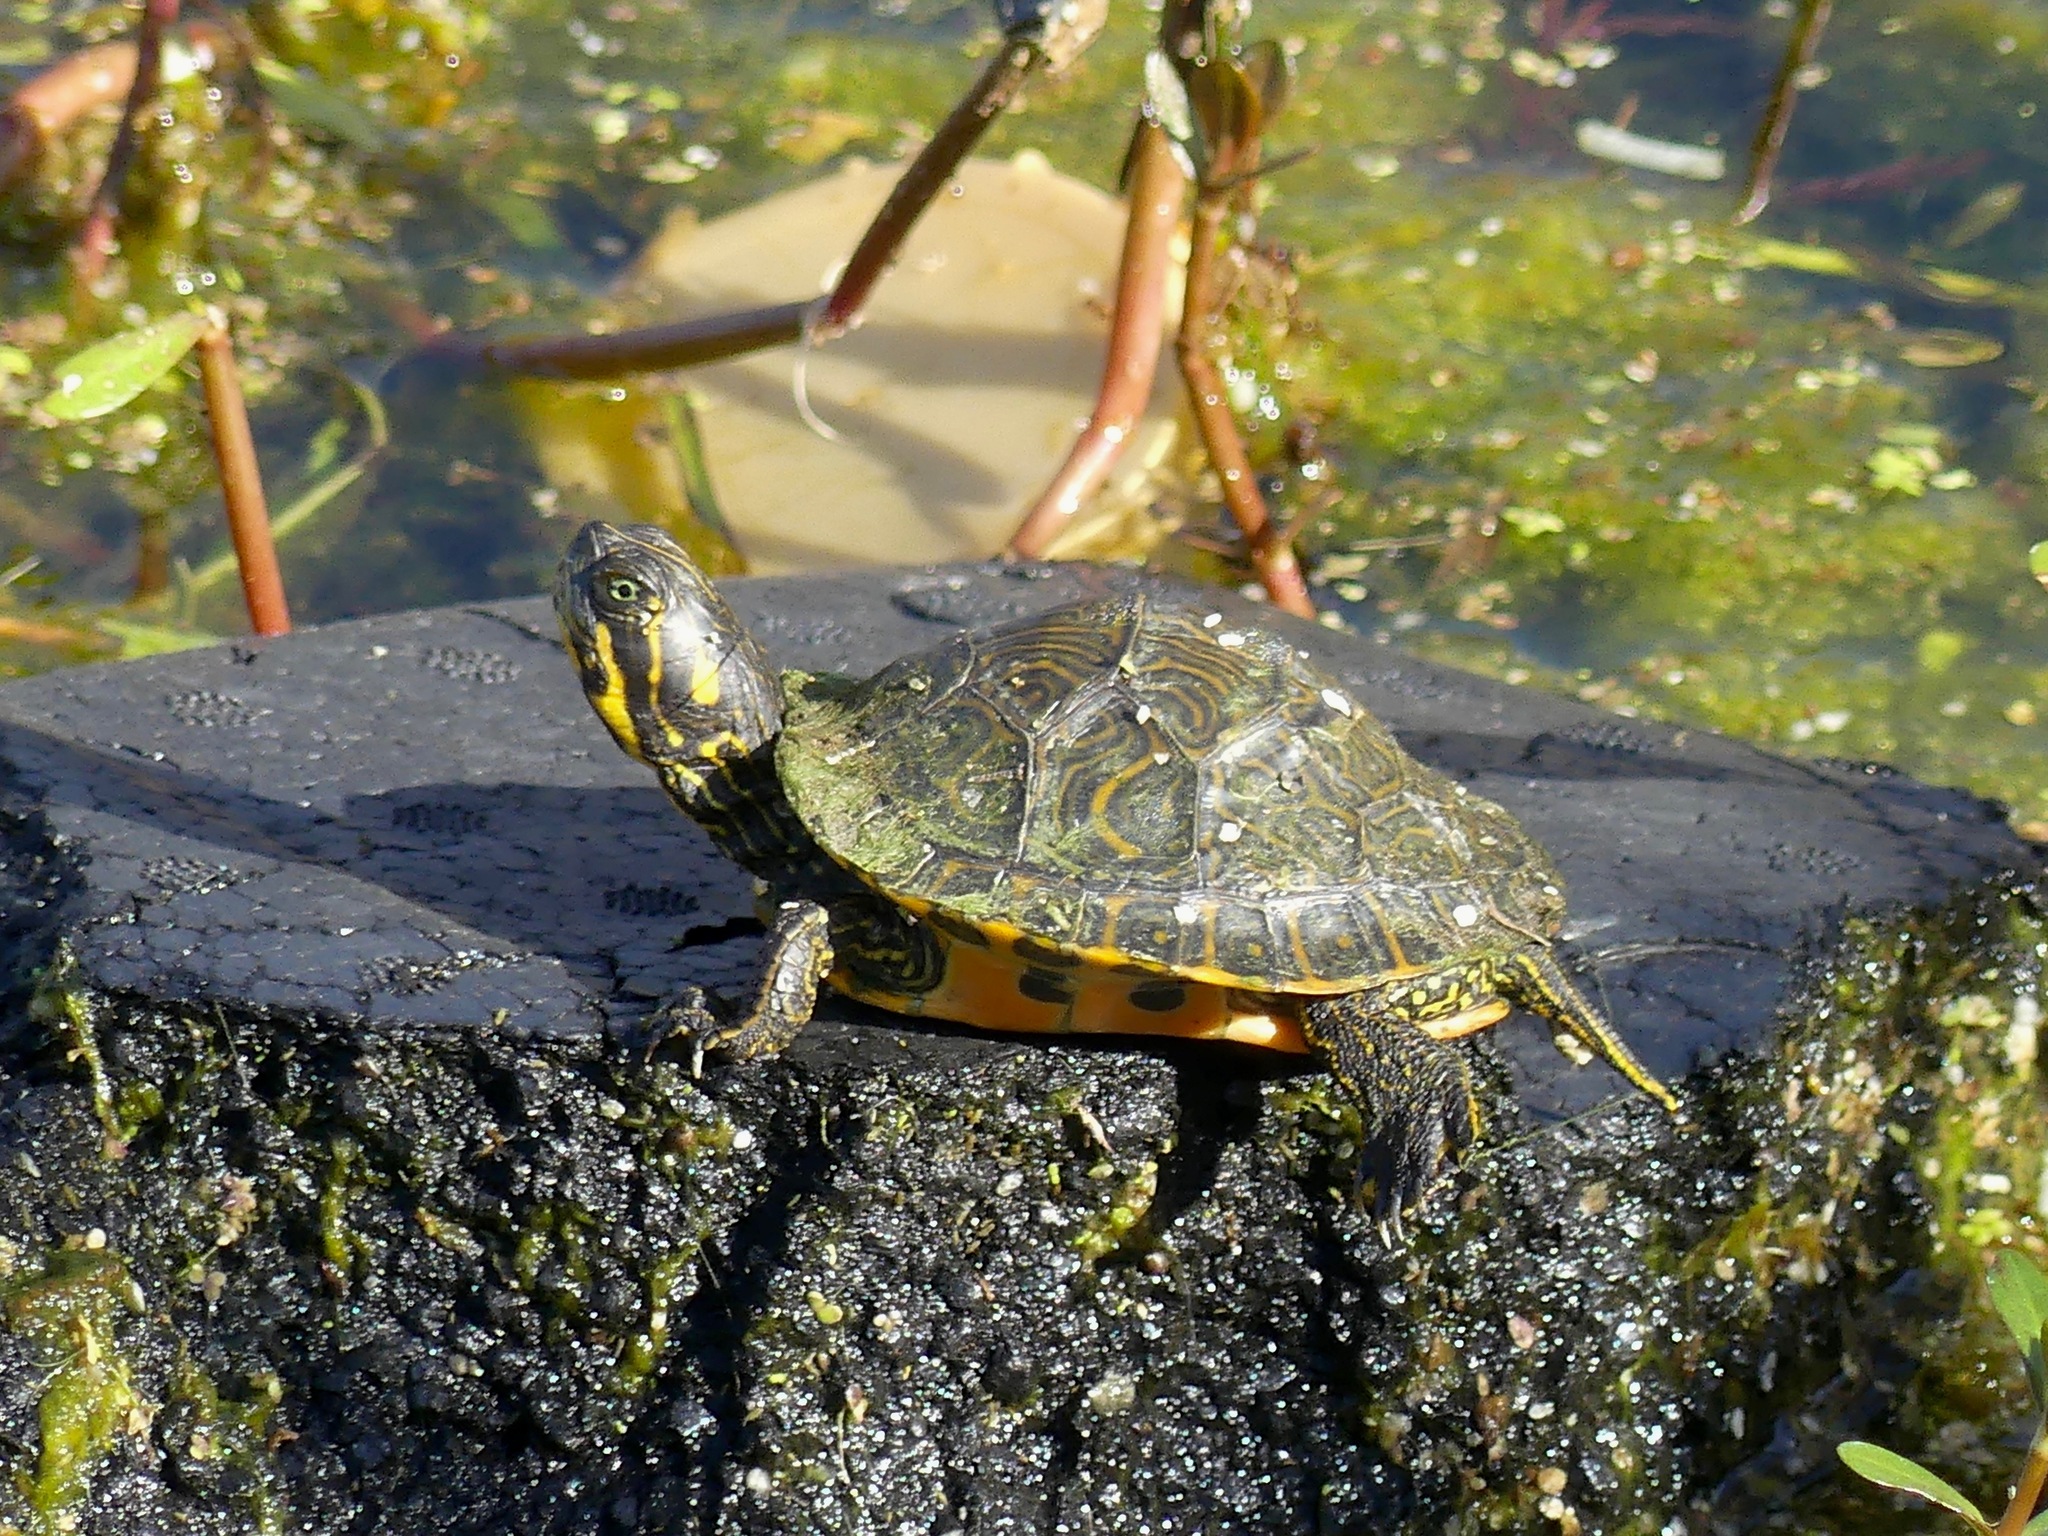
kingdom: Animalia
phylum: Chordata
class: Testudines
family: Emydidae
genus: Pseudemys
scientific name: Pseudemys concinna
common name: Eastern river cooter
